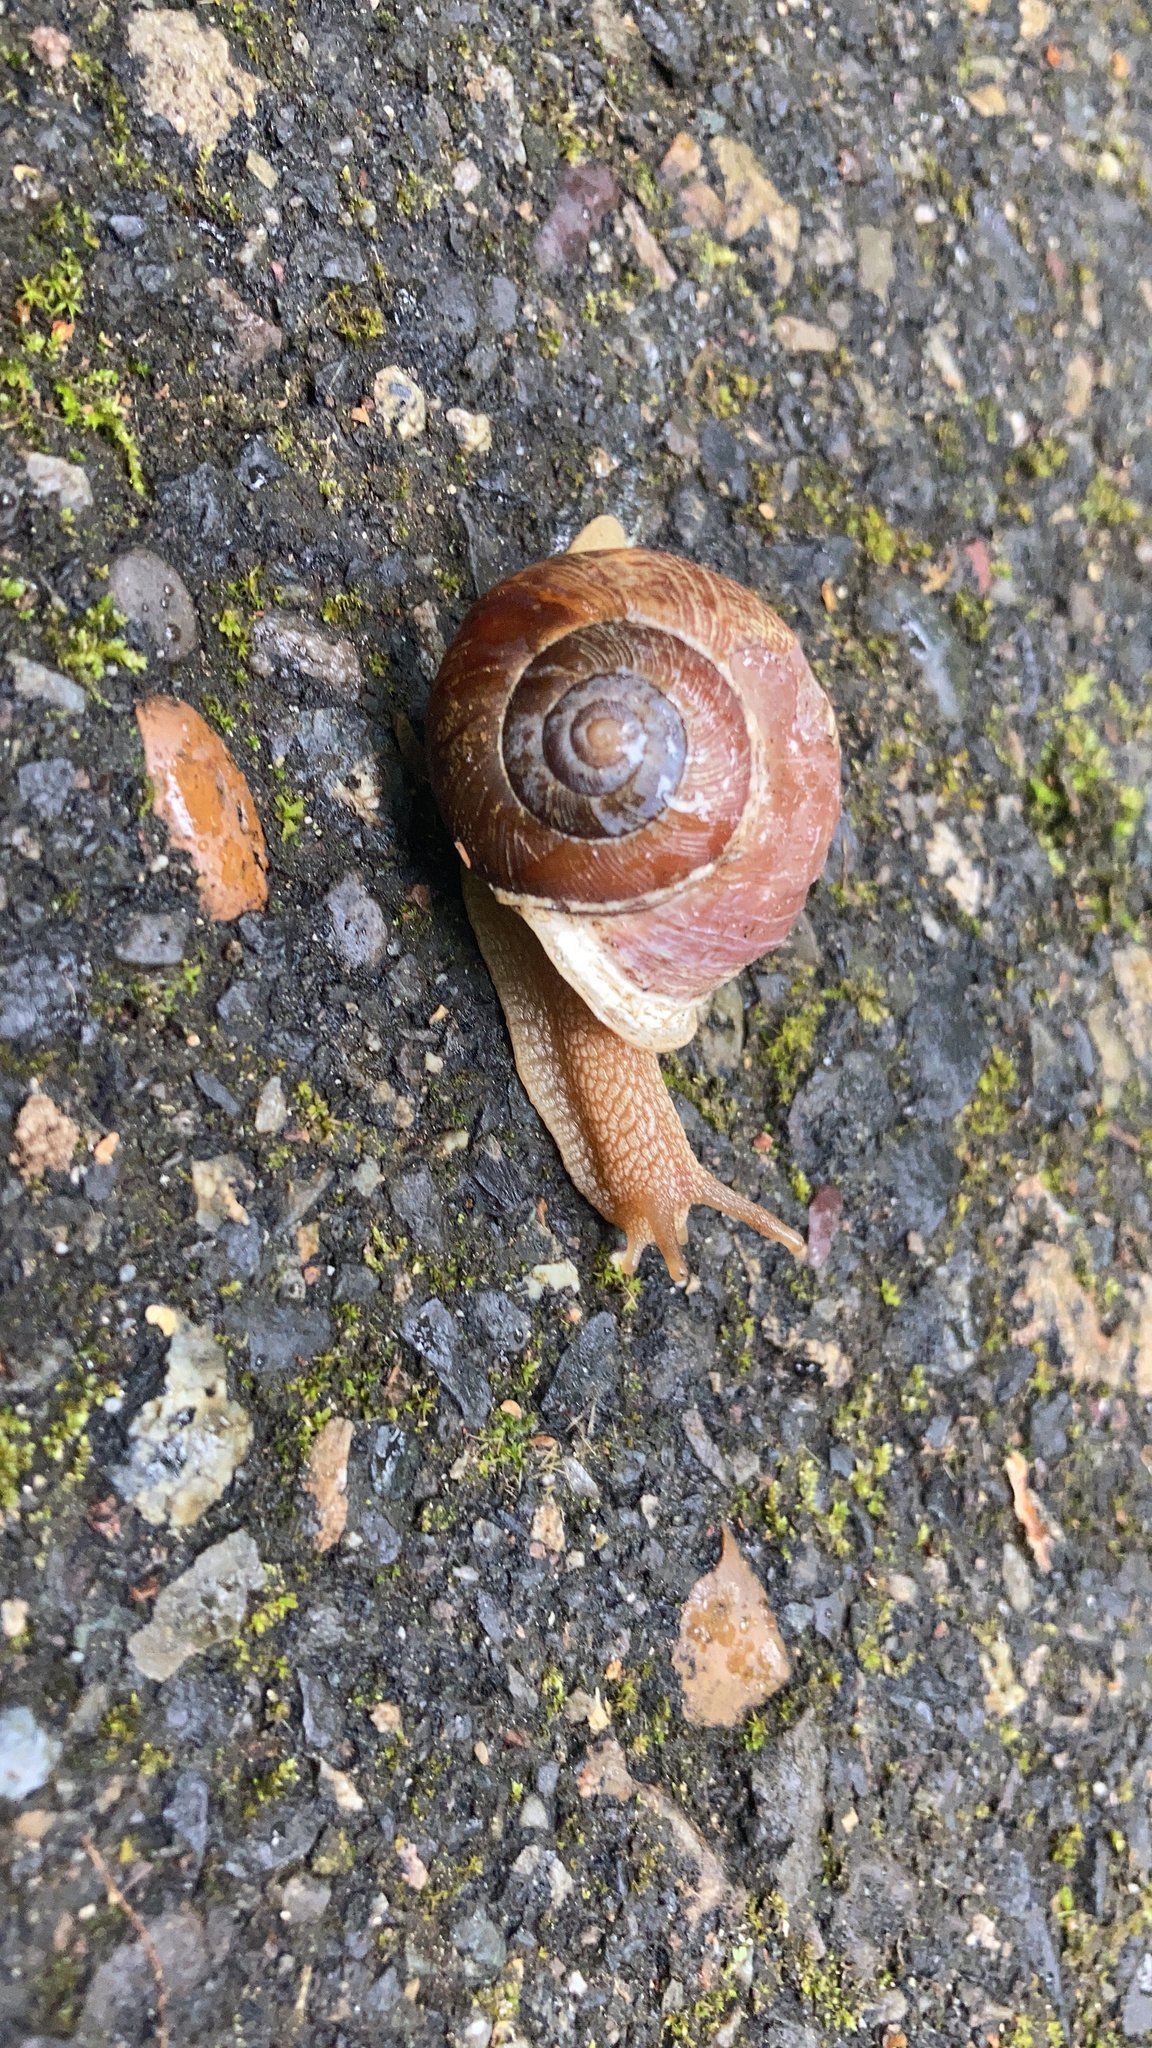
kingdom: Animalia
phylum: Mollusca
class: Gastropoda
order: Stylommatophora
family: Polygyridae
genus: Allogona
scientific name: Allogona townsendiana
